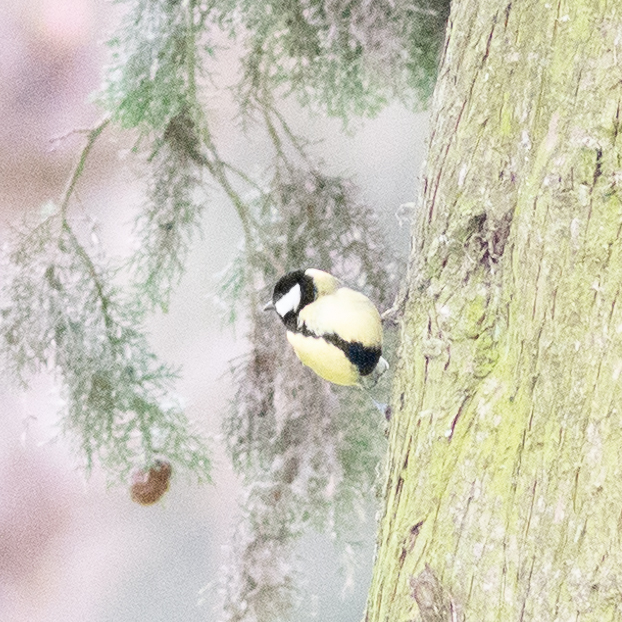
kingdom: Animalia
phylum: Chordata
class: Aves
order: Passeriformes
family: Paridae
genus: Parus
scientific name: Parus major
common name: Great tit
